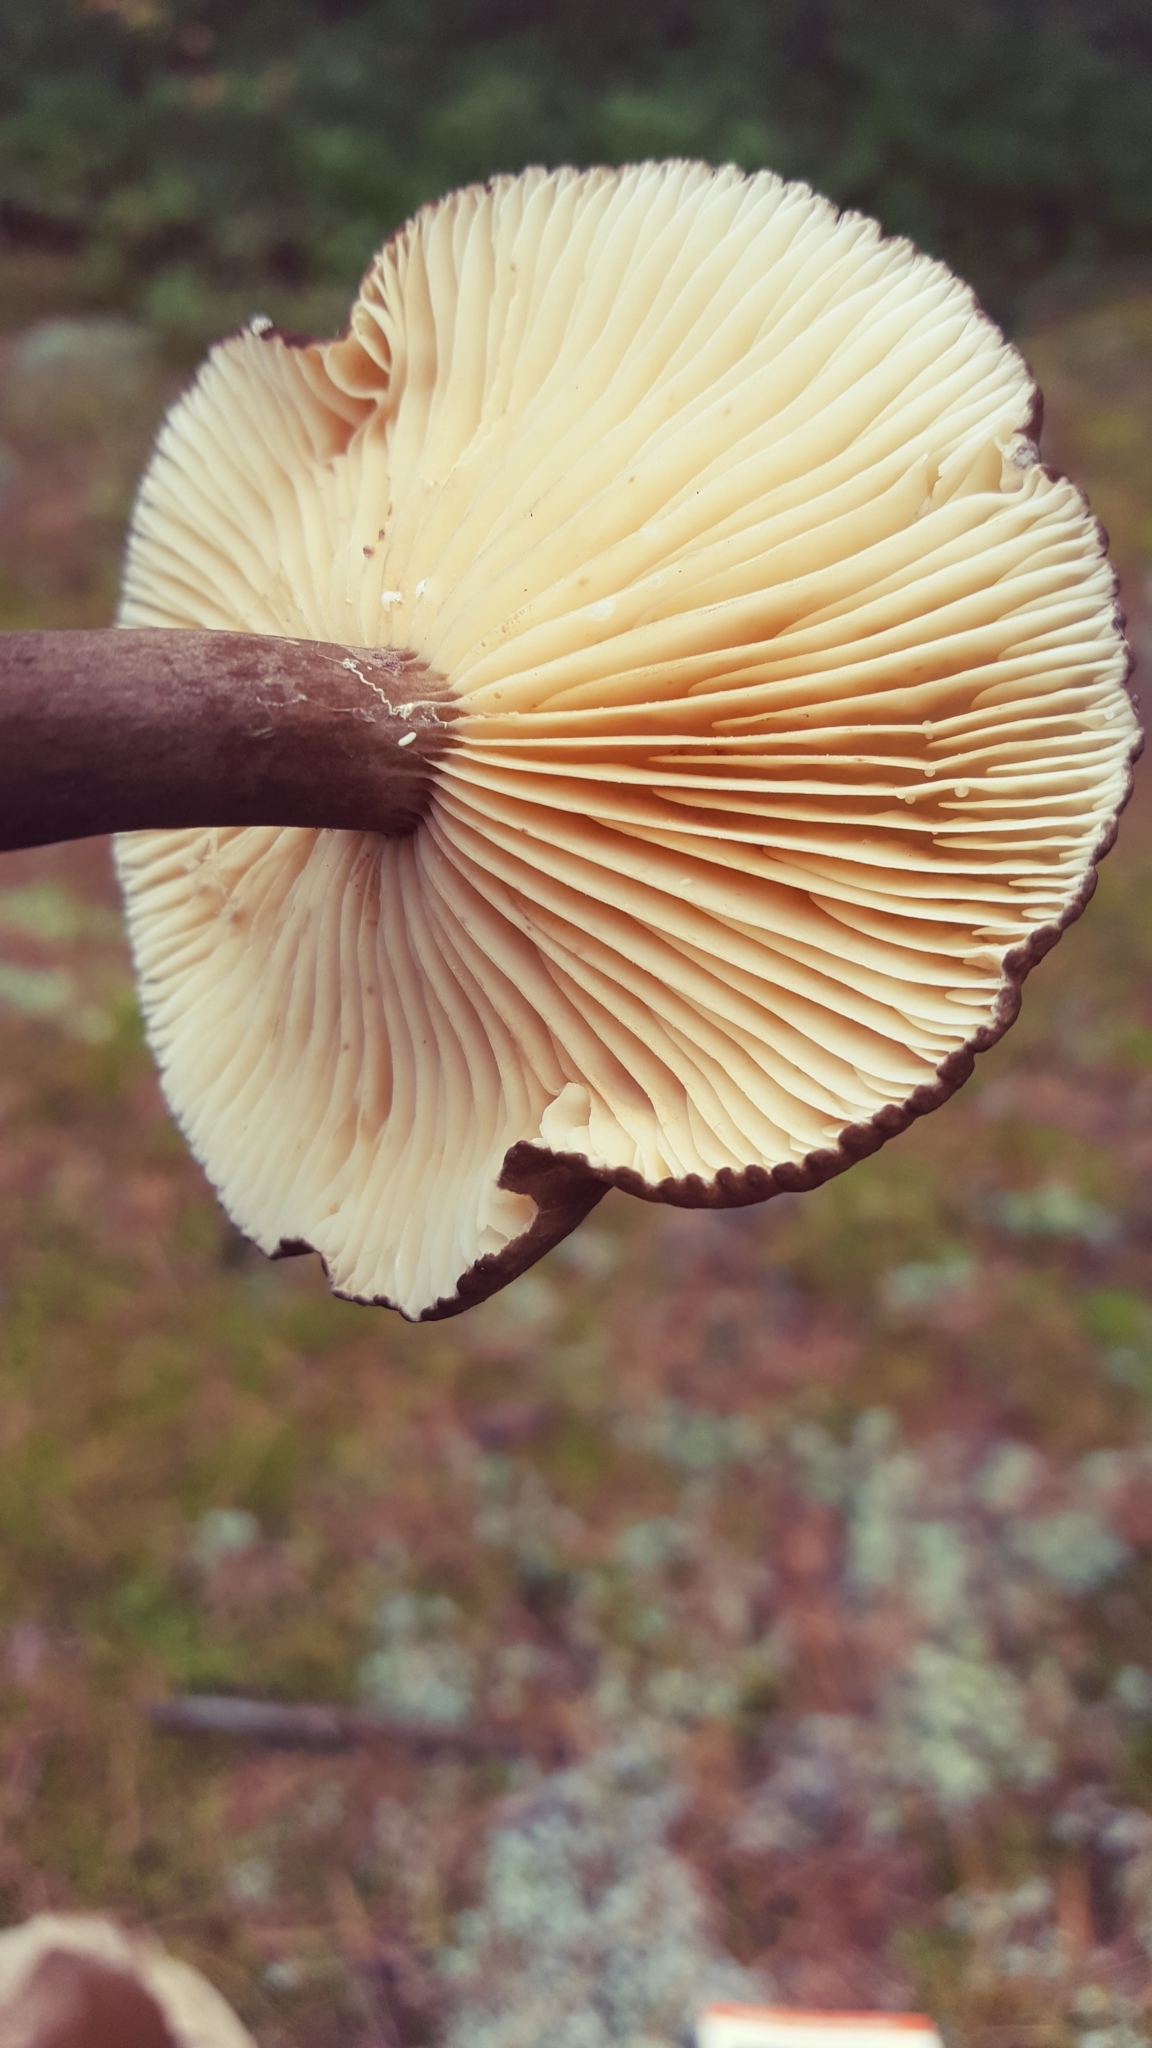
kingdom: Fungi
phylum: Basidiomycota
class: Agaricomycetes
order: Russulales
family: Russulaceae
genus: Lactarius
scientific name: Lactarius lignyotus
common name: Velvet milkcap
